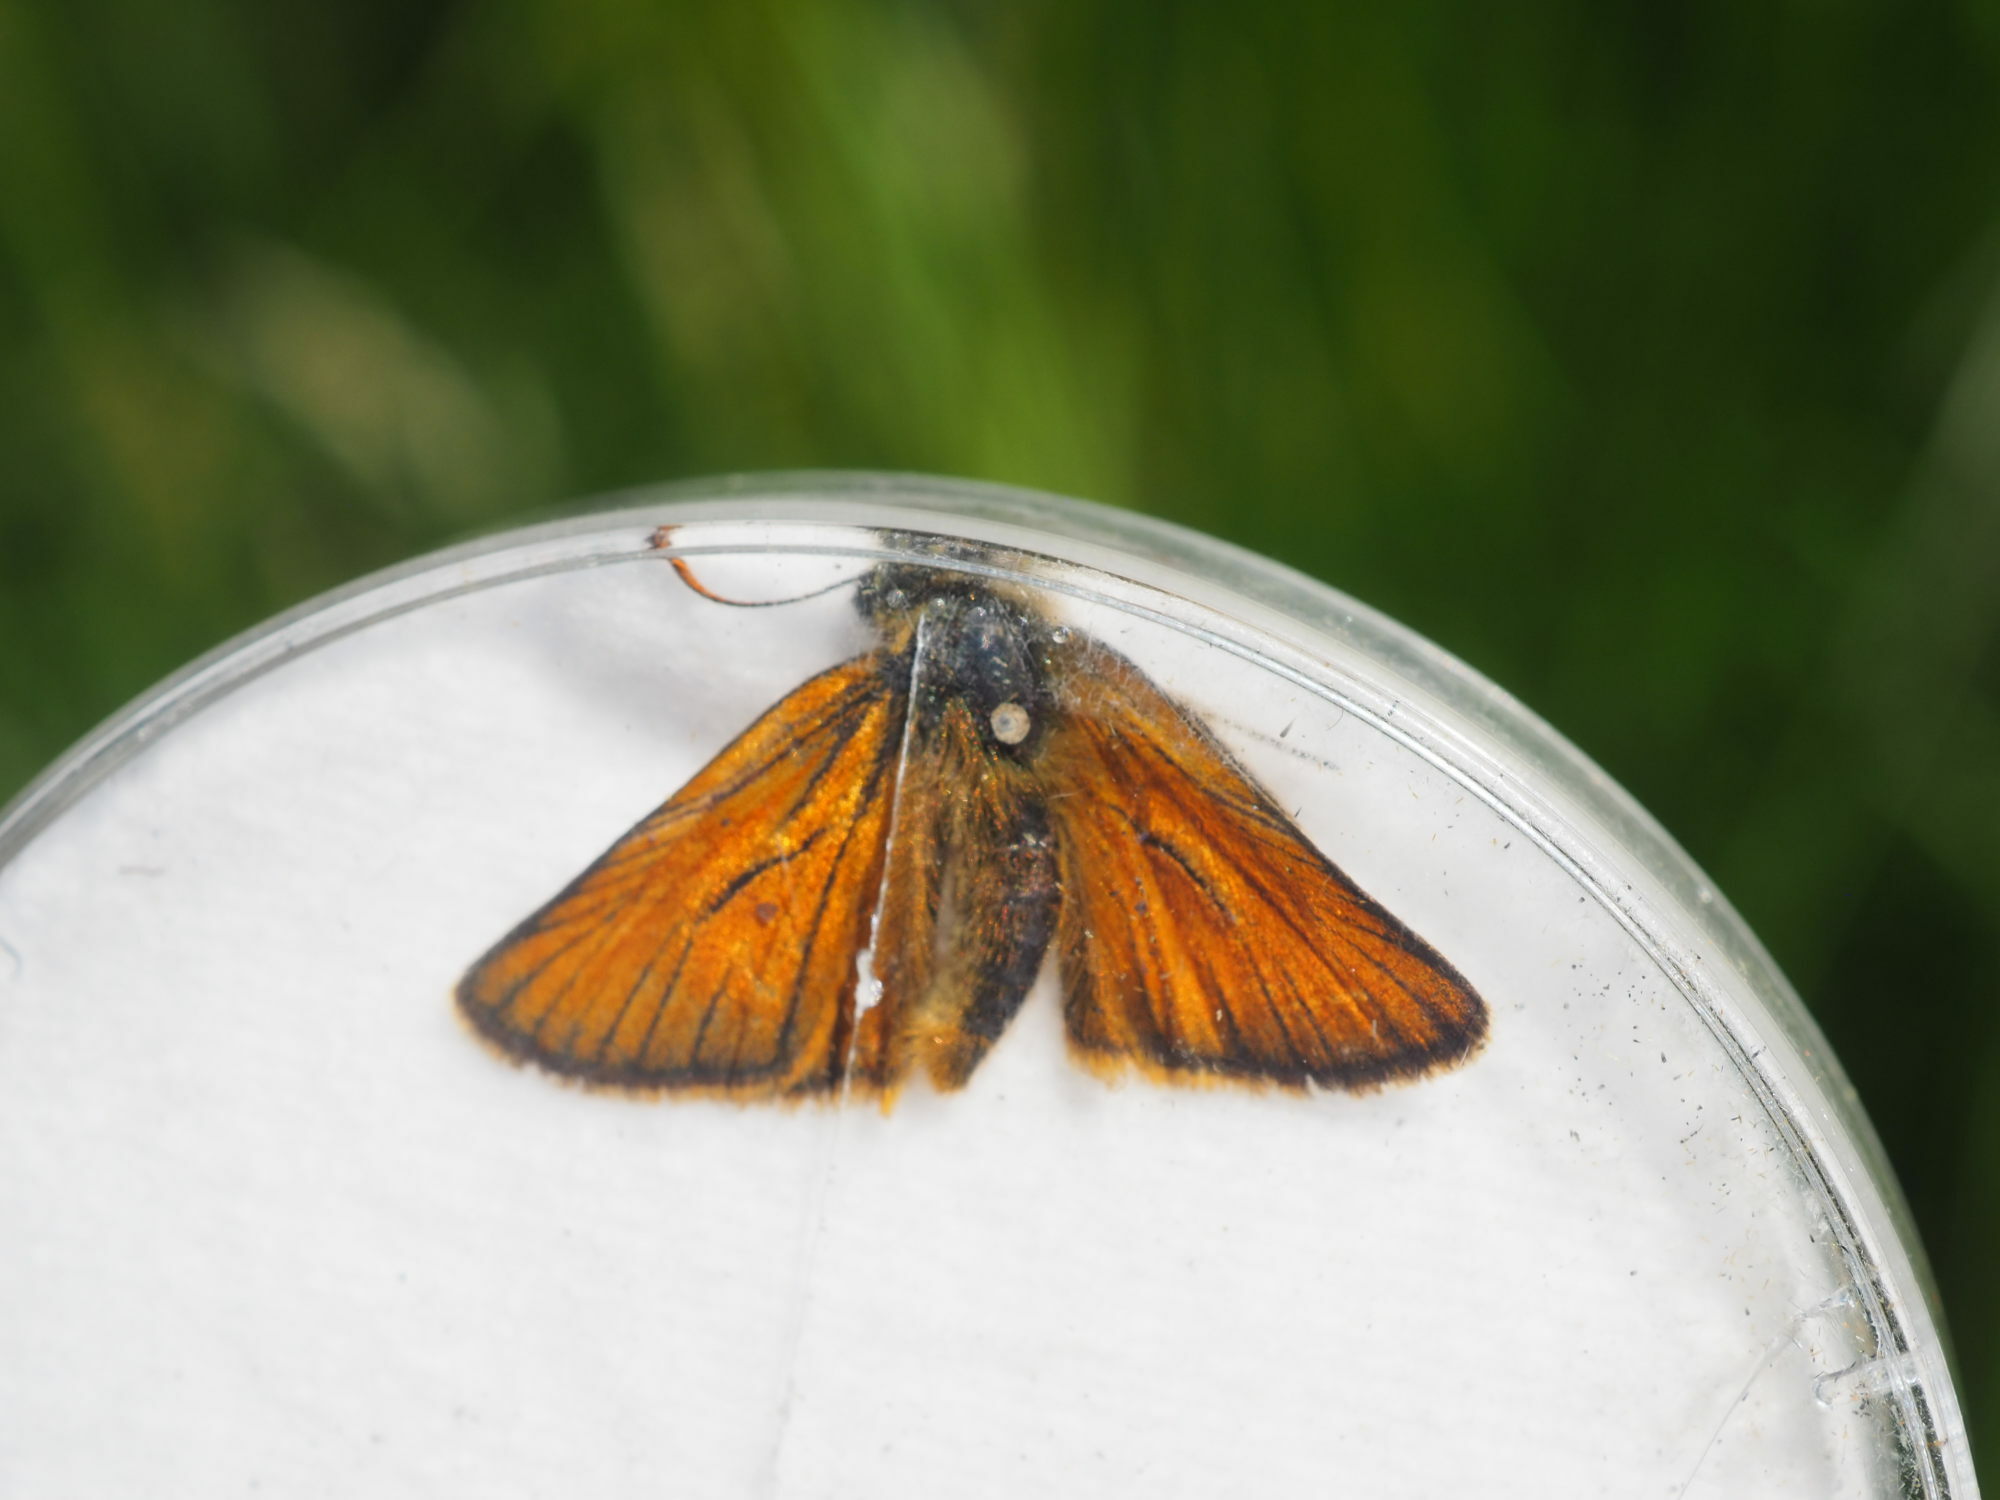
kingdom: Animalia
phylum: Arthropoda
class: Insecta
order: Lepidoptera
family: Hesperiidae
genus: Thymelicus
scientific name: Thymelicus sylvestris
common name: Small skipper
